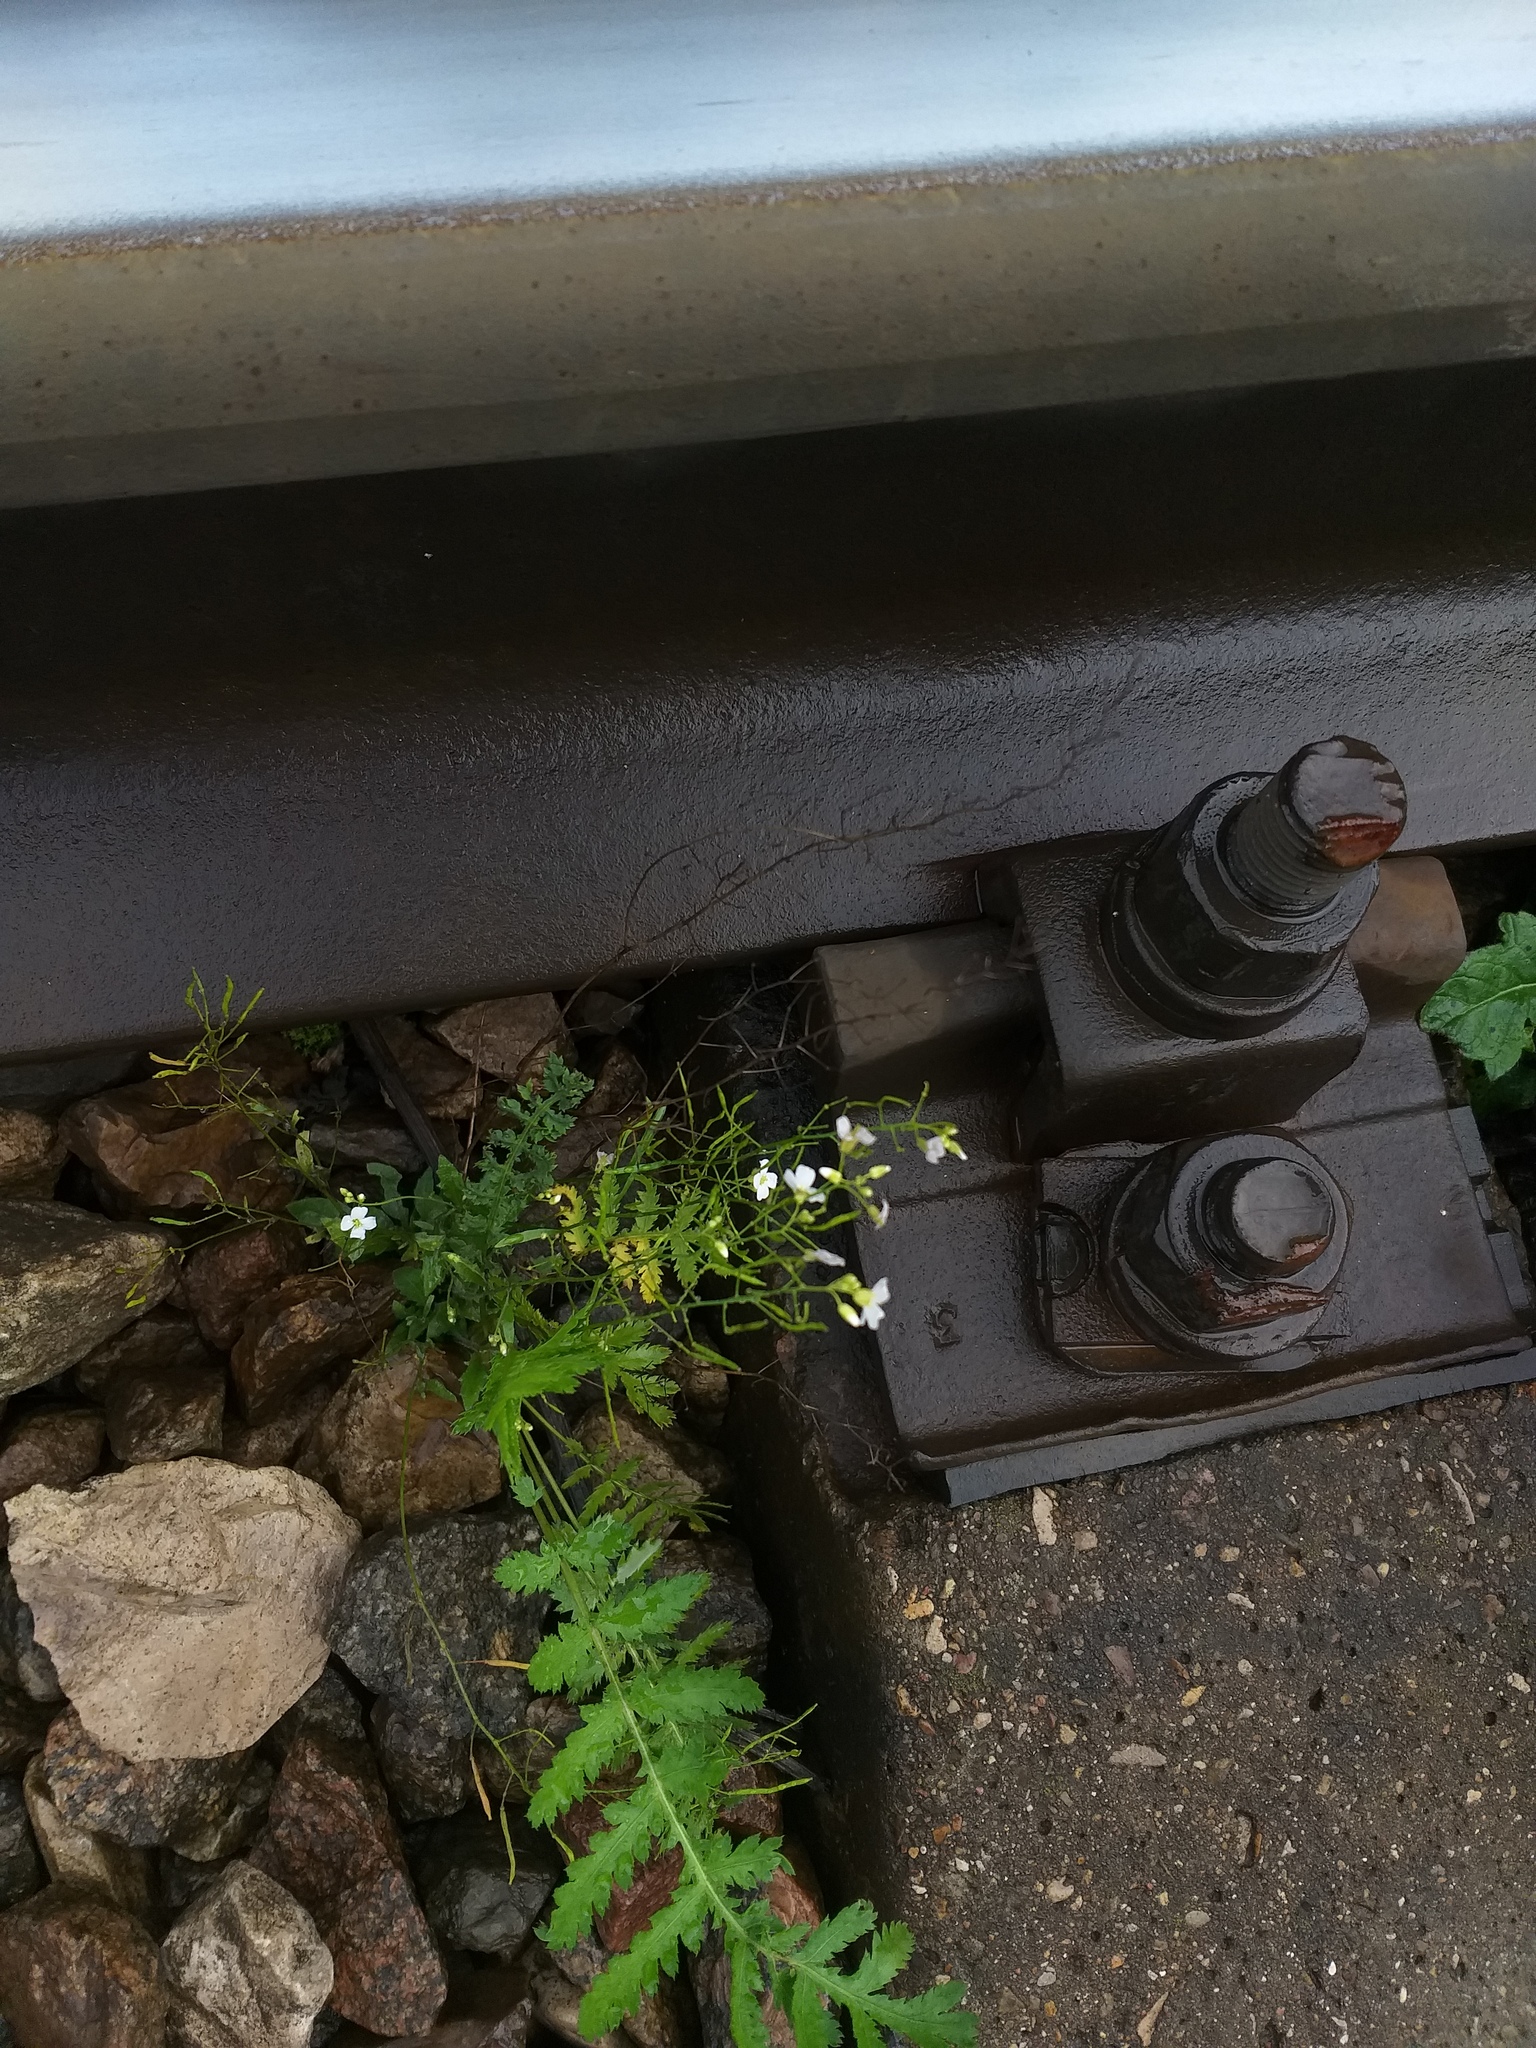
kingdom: Plantae
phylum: Tracheophyta
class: Magnoliopsida
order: Brassicales
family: Brassicaceae
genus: Arabidopsis
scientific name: Arabidopsis arenosa
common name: Sand rock-cress
